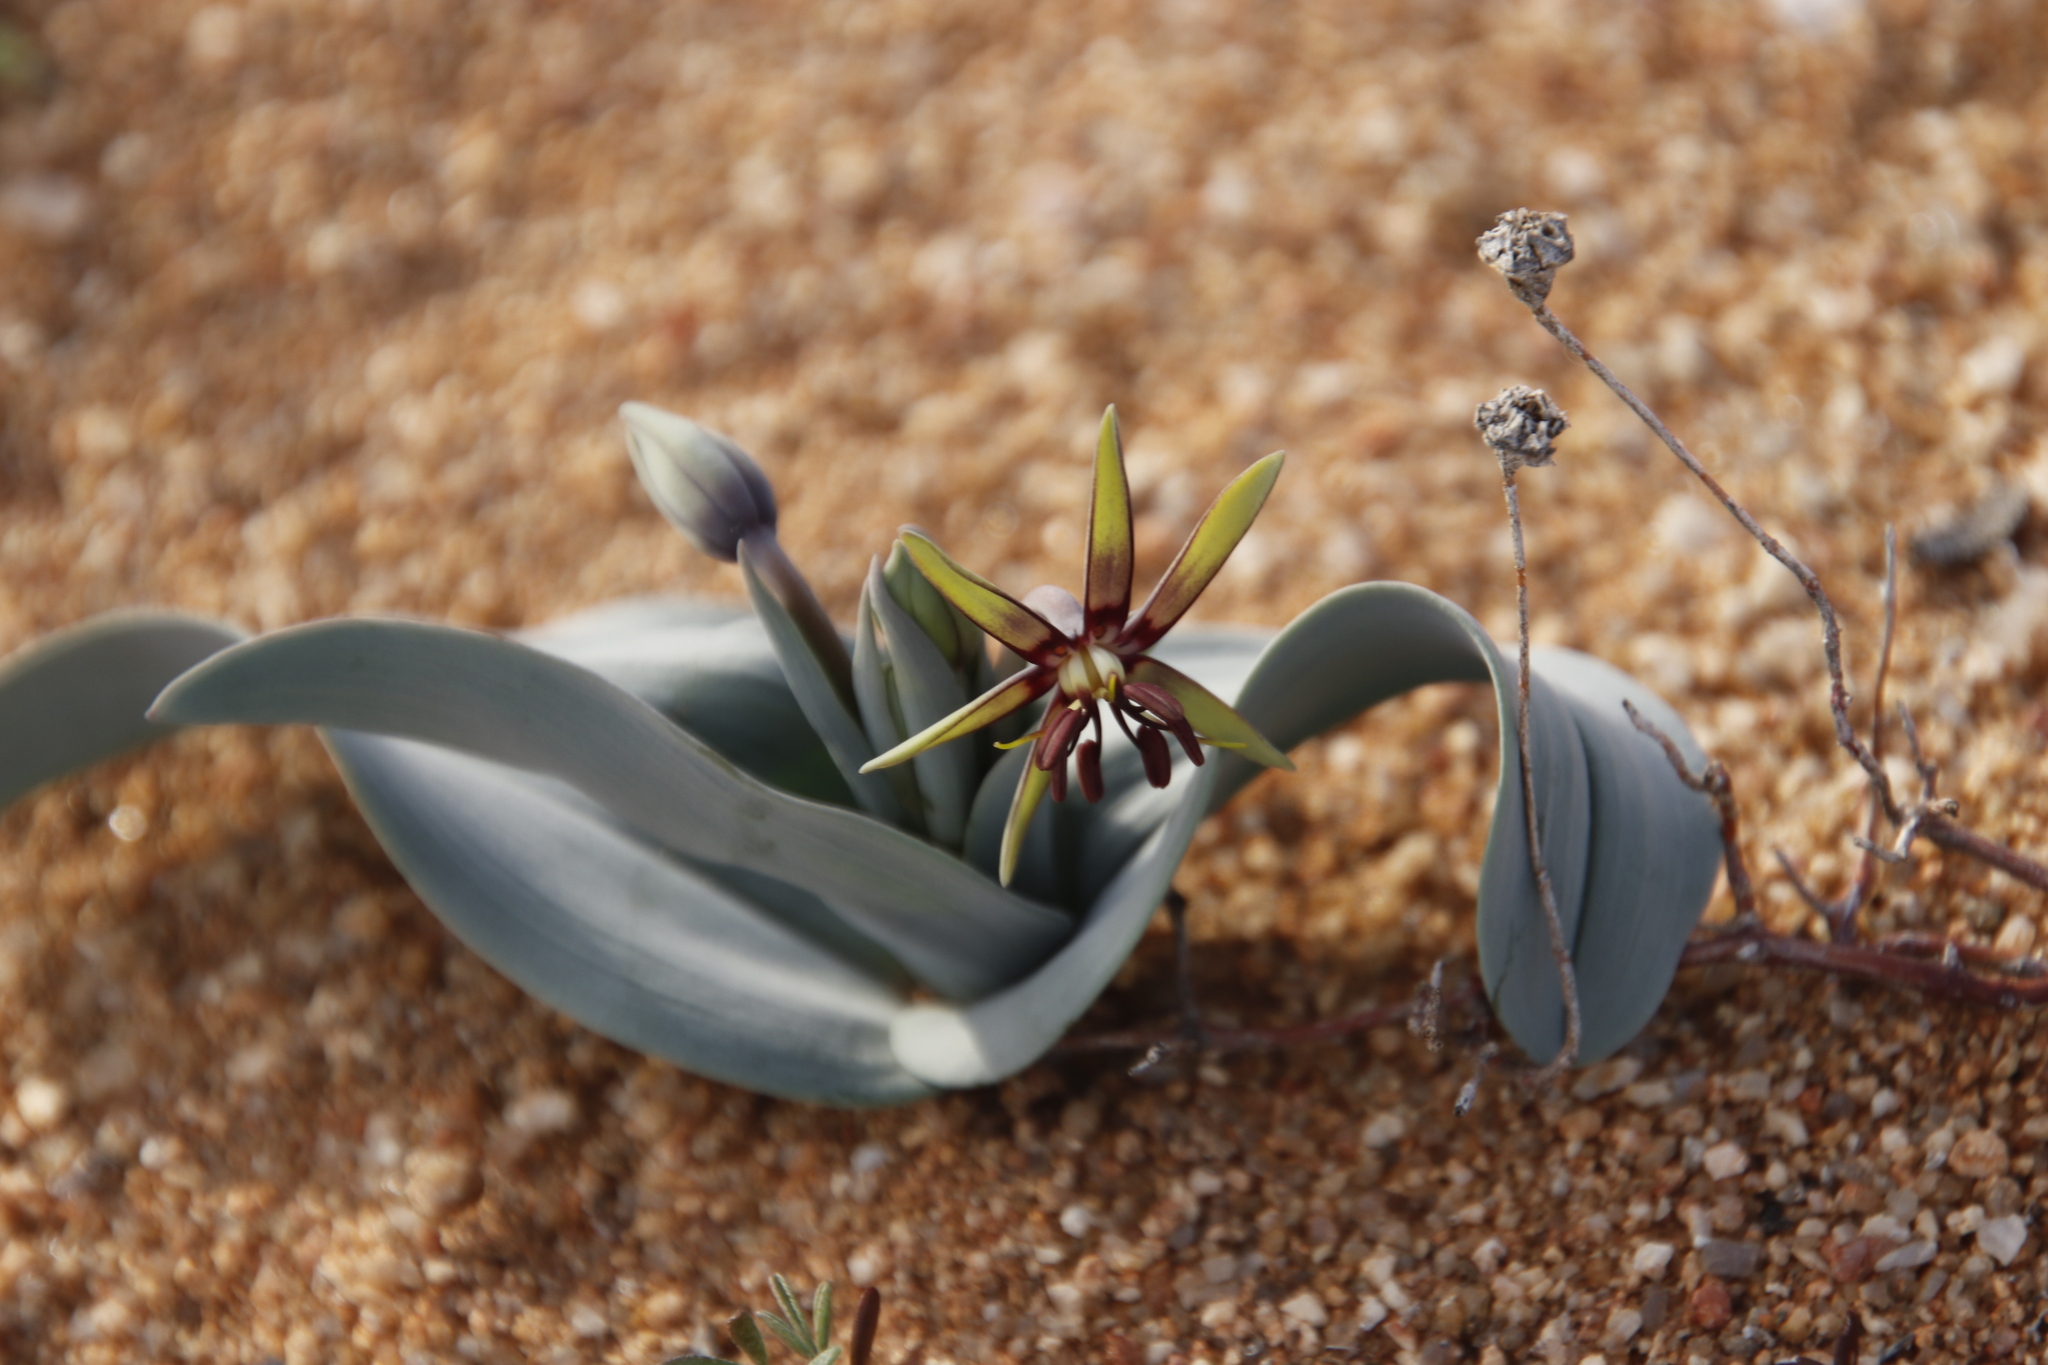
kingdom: Plantae
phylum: Tracheophyta
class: Liliopsida
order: Liliales
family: Colchicaceae
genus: Ornithoglossum
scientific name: Ornithoglossum vulgare
